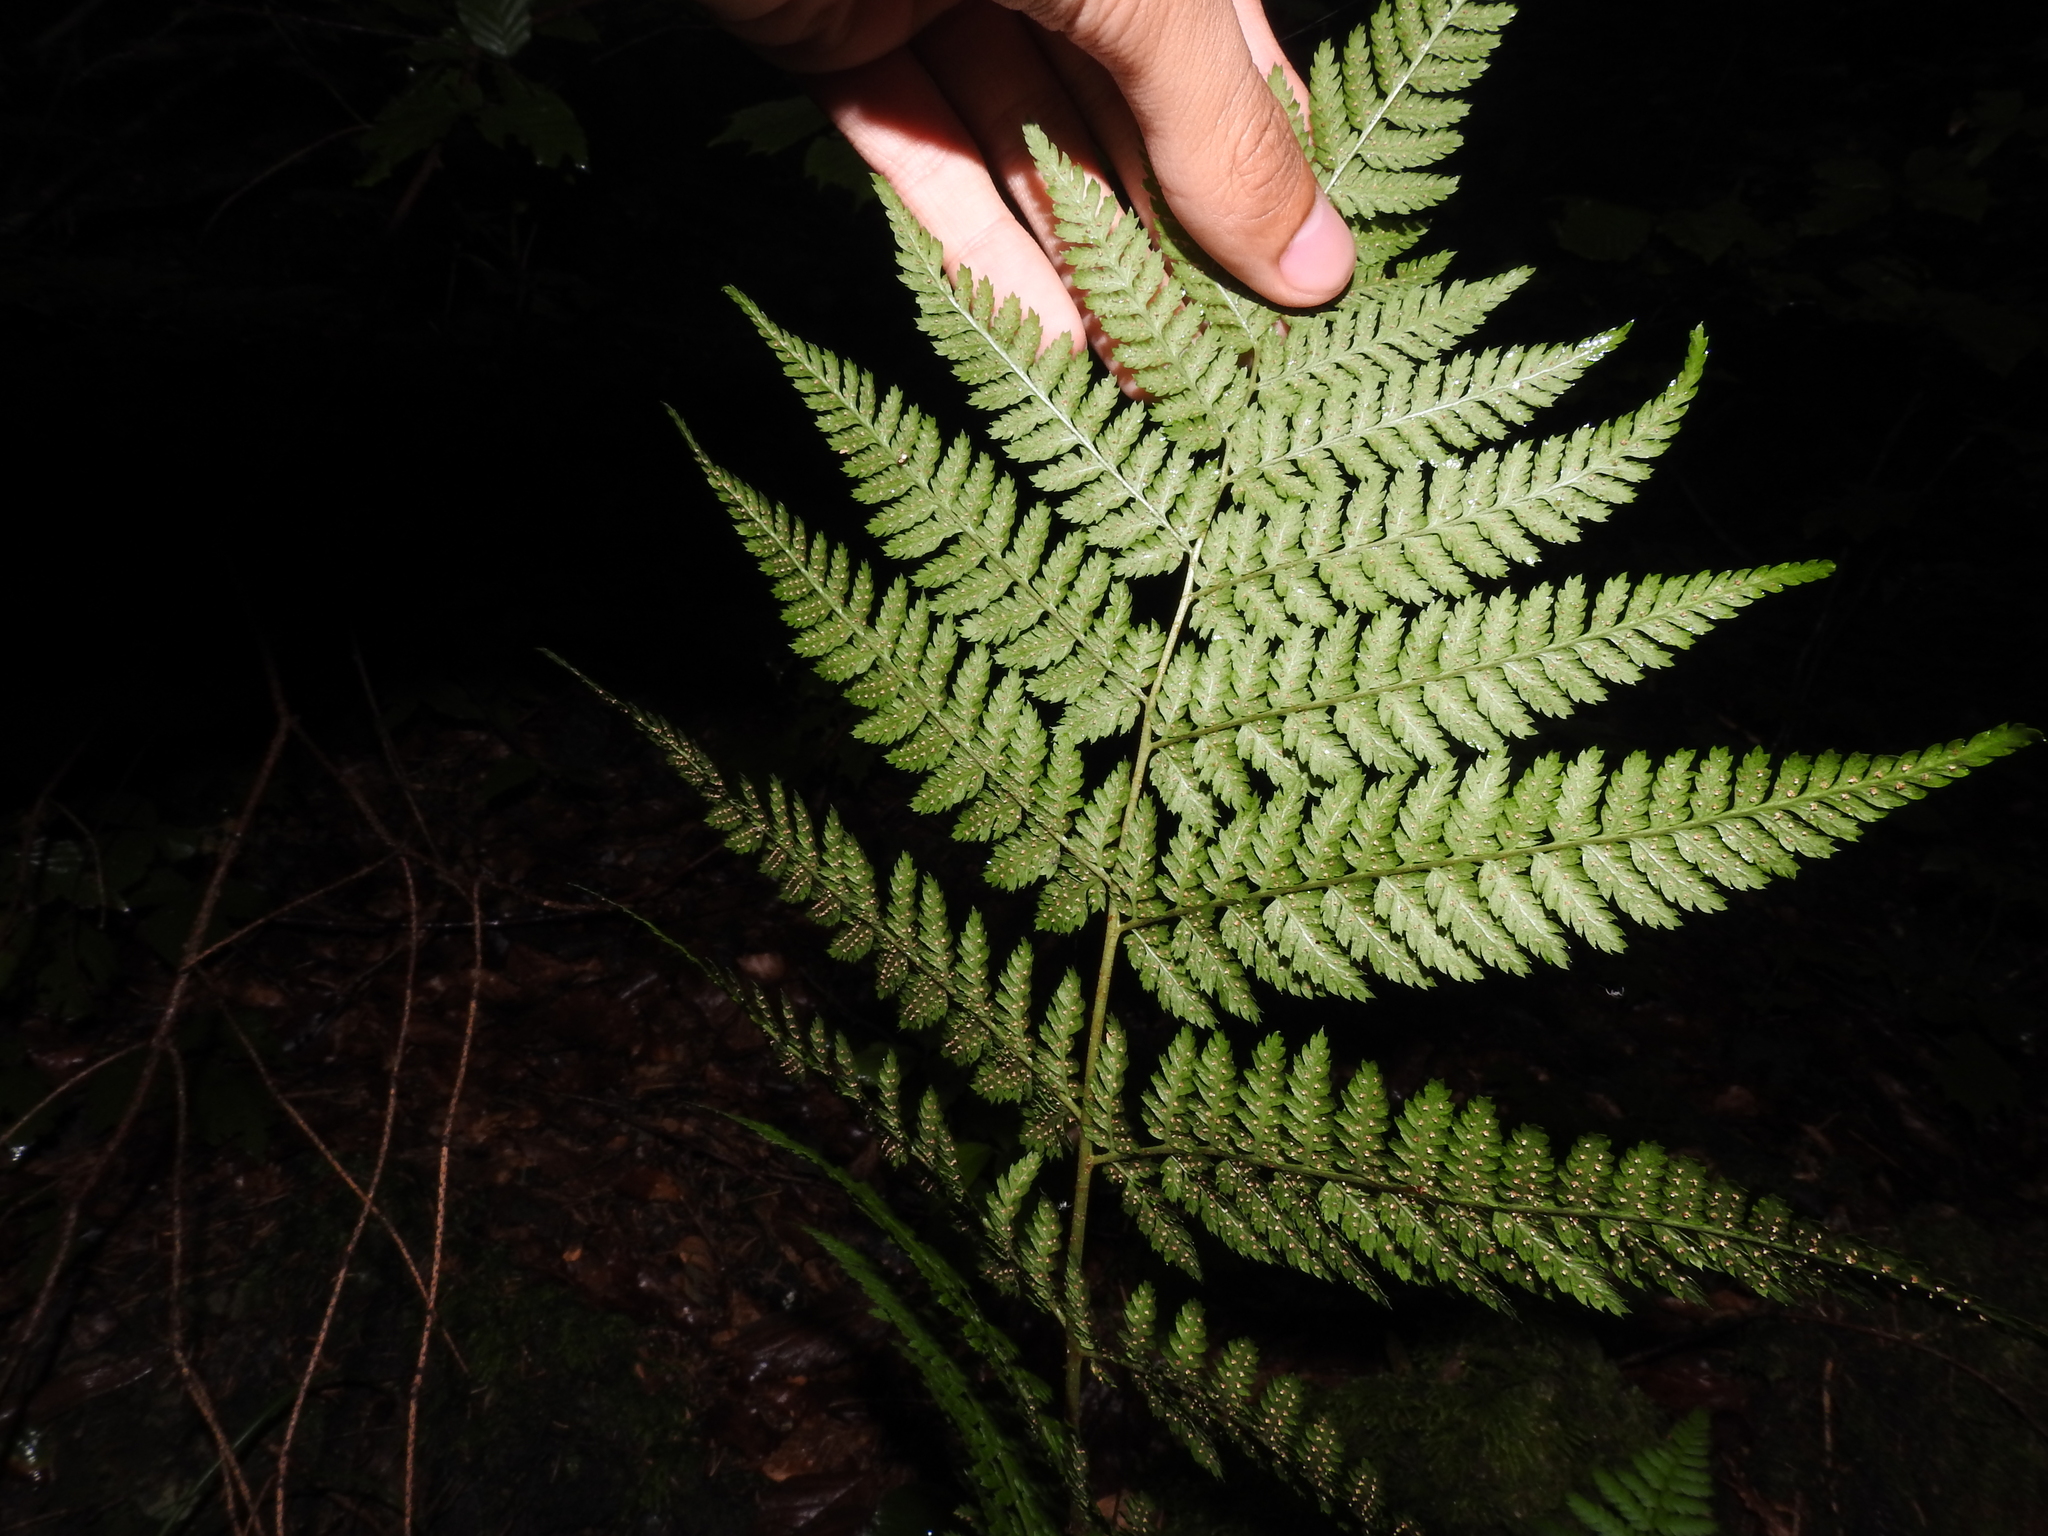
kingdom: Plantae
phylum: Tracheophyta
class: Polypodiopsida
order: Polypodiales
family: Dryopteridaceae
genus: Dryopteris
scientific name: Dryopteris dilatata
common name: Broad buckler-fern
